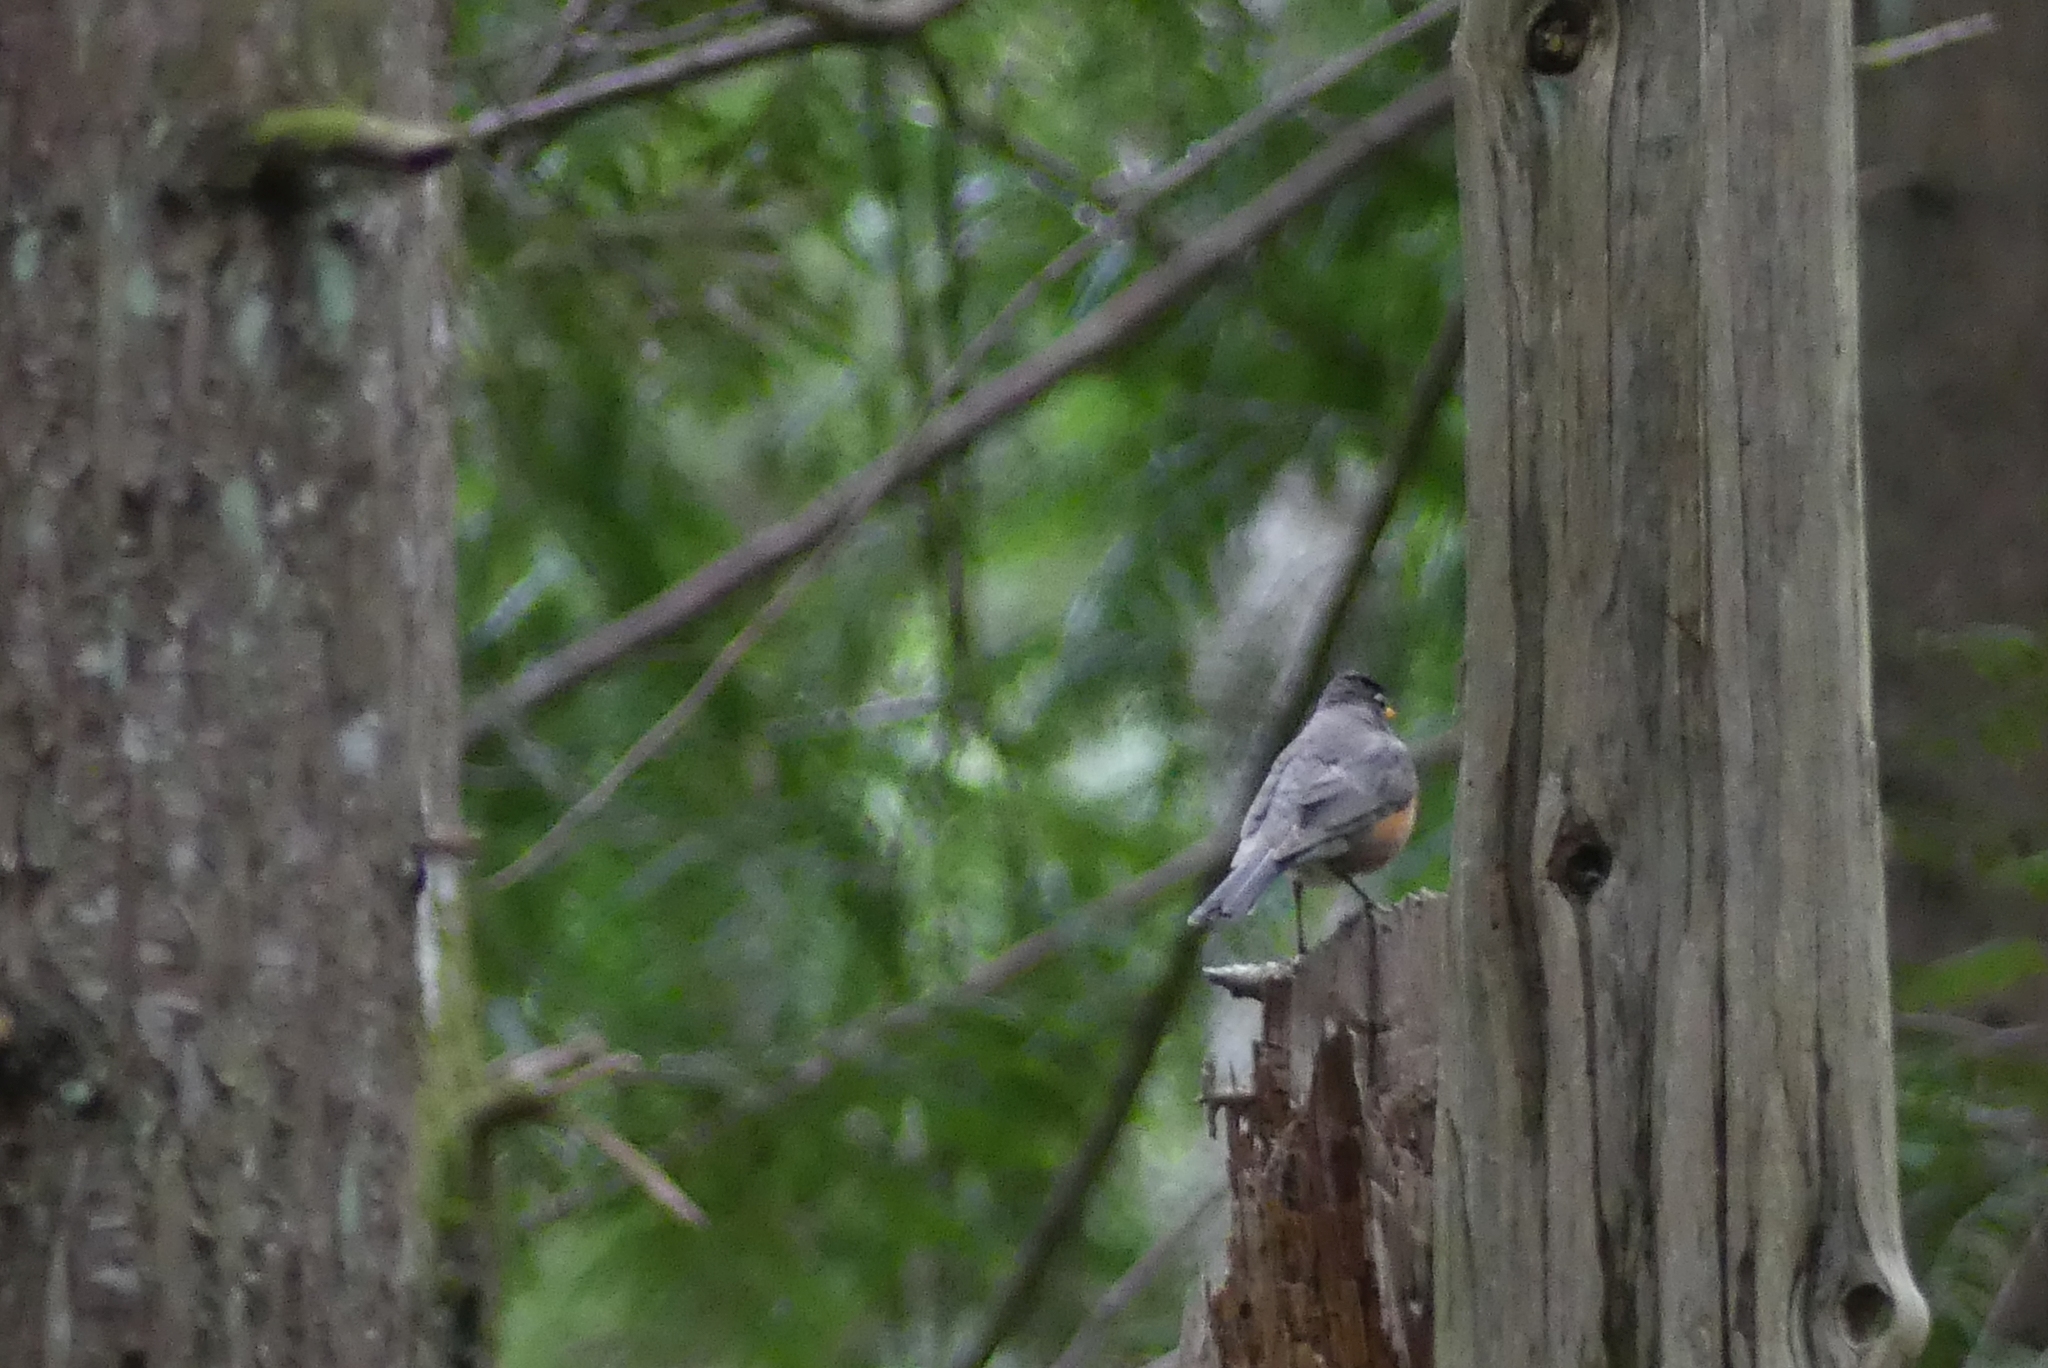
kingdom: Animalia
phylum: Chordata
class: Aves
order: Passeriformes
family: Turdidae
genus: Turdus
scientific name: Turdus migratorius
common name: American robin
